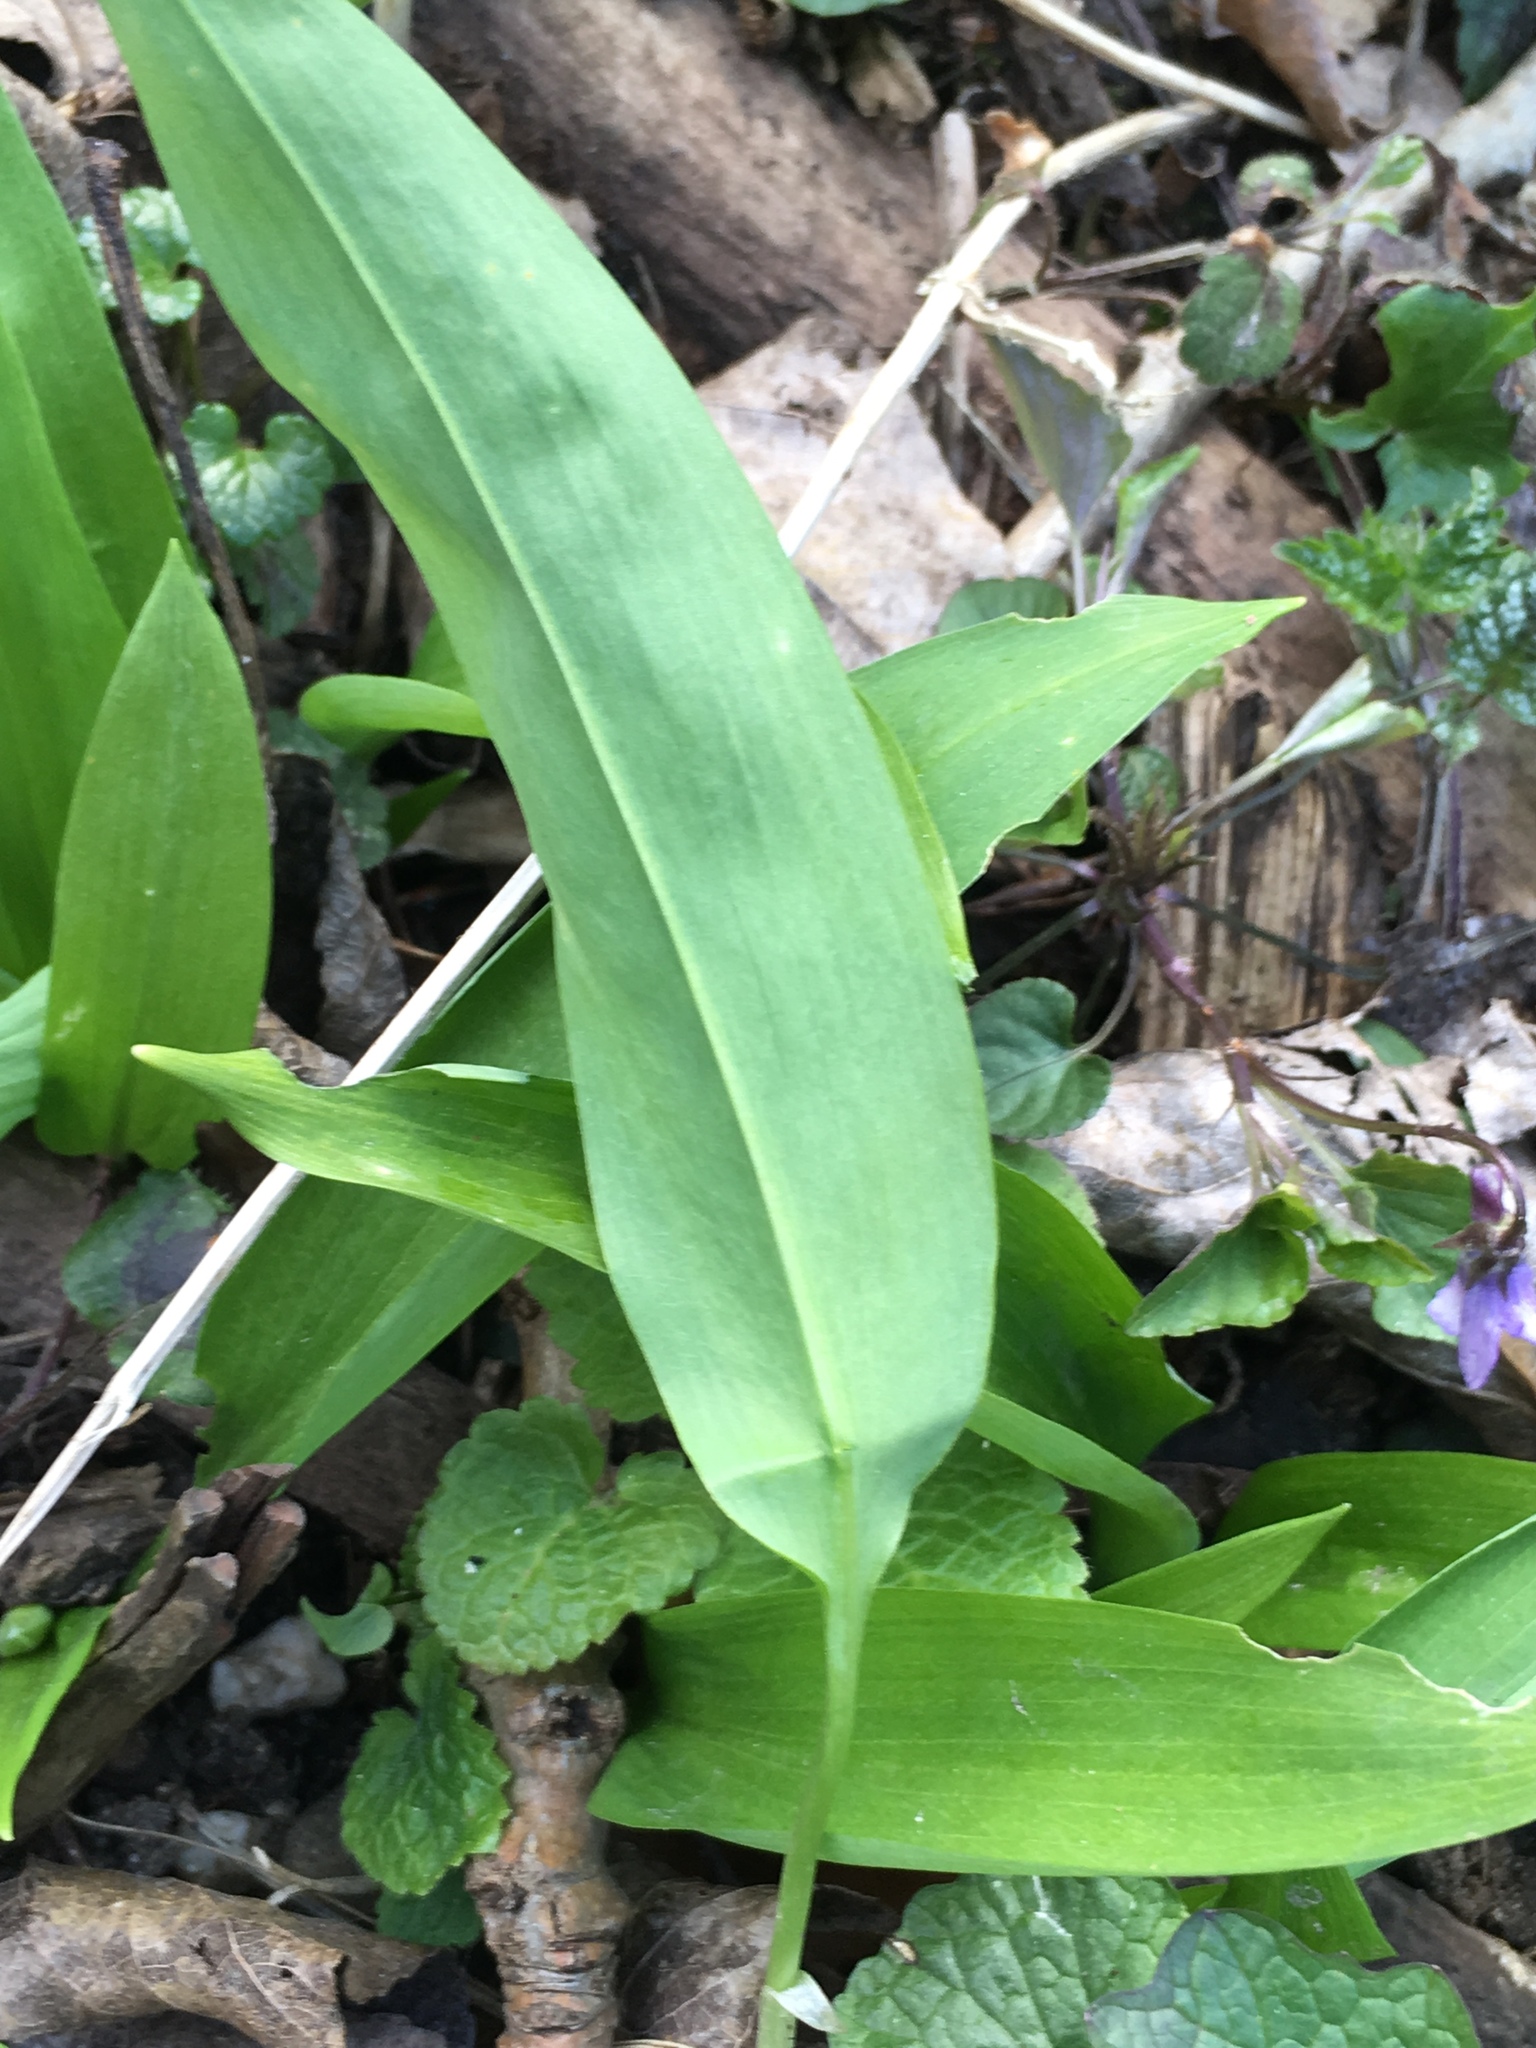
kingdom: Plantae
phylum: Tracheophyta
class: Liliopsida
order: Asparagales
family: Amaryllidaceae
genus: Allium
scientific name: Allium ursinum
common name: Ramsons
